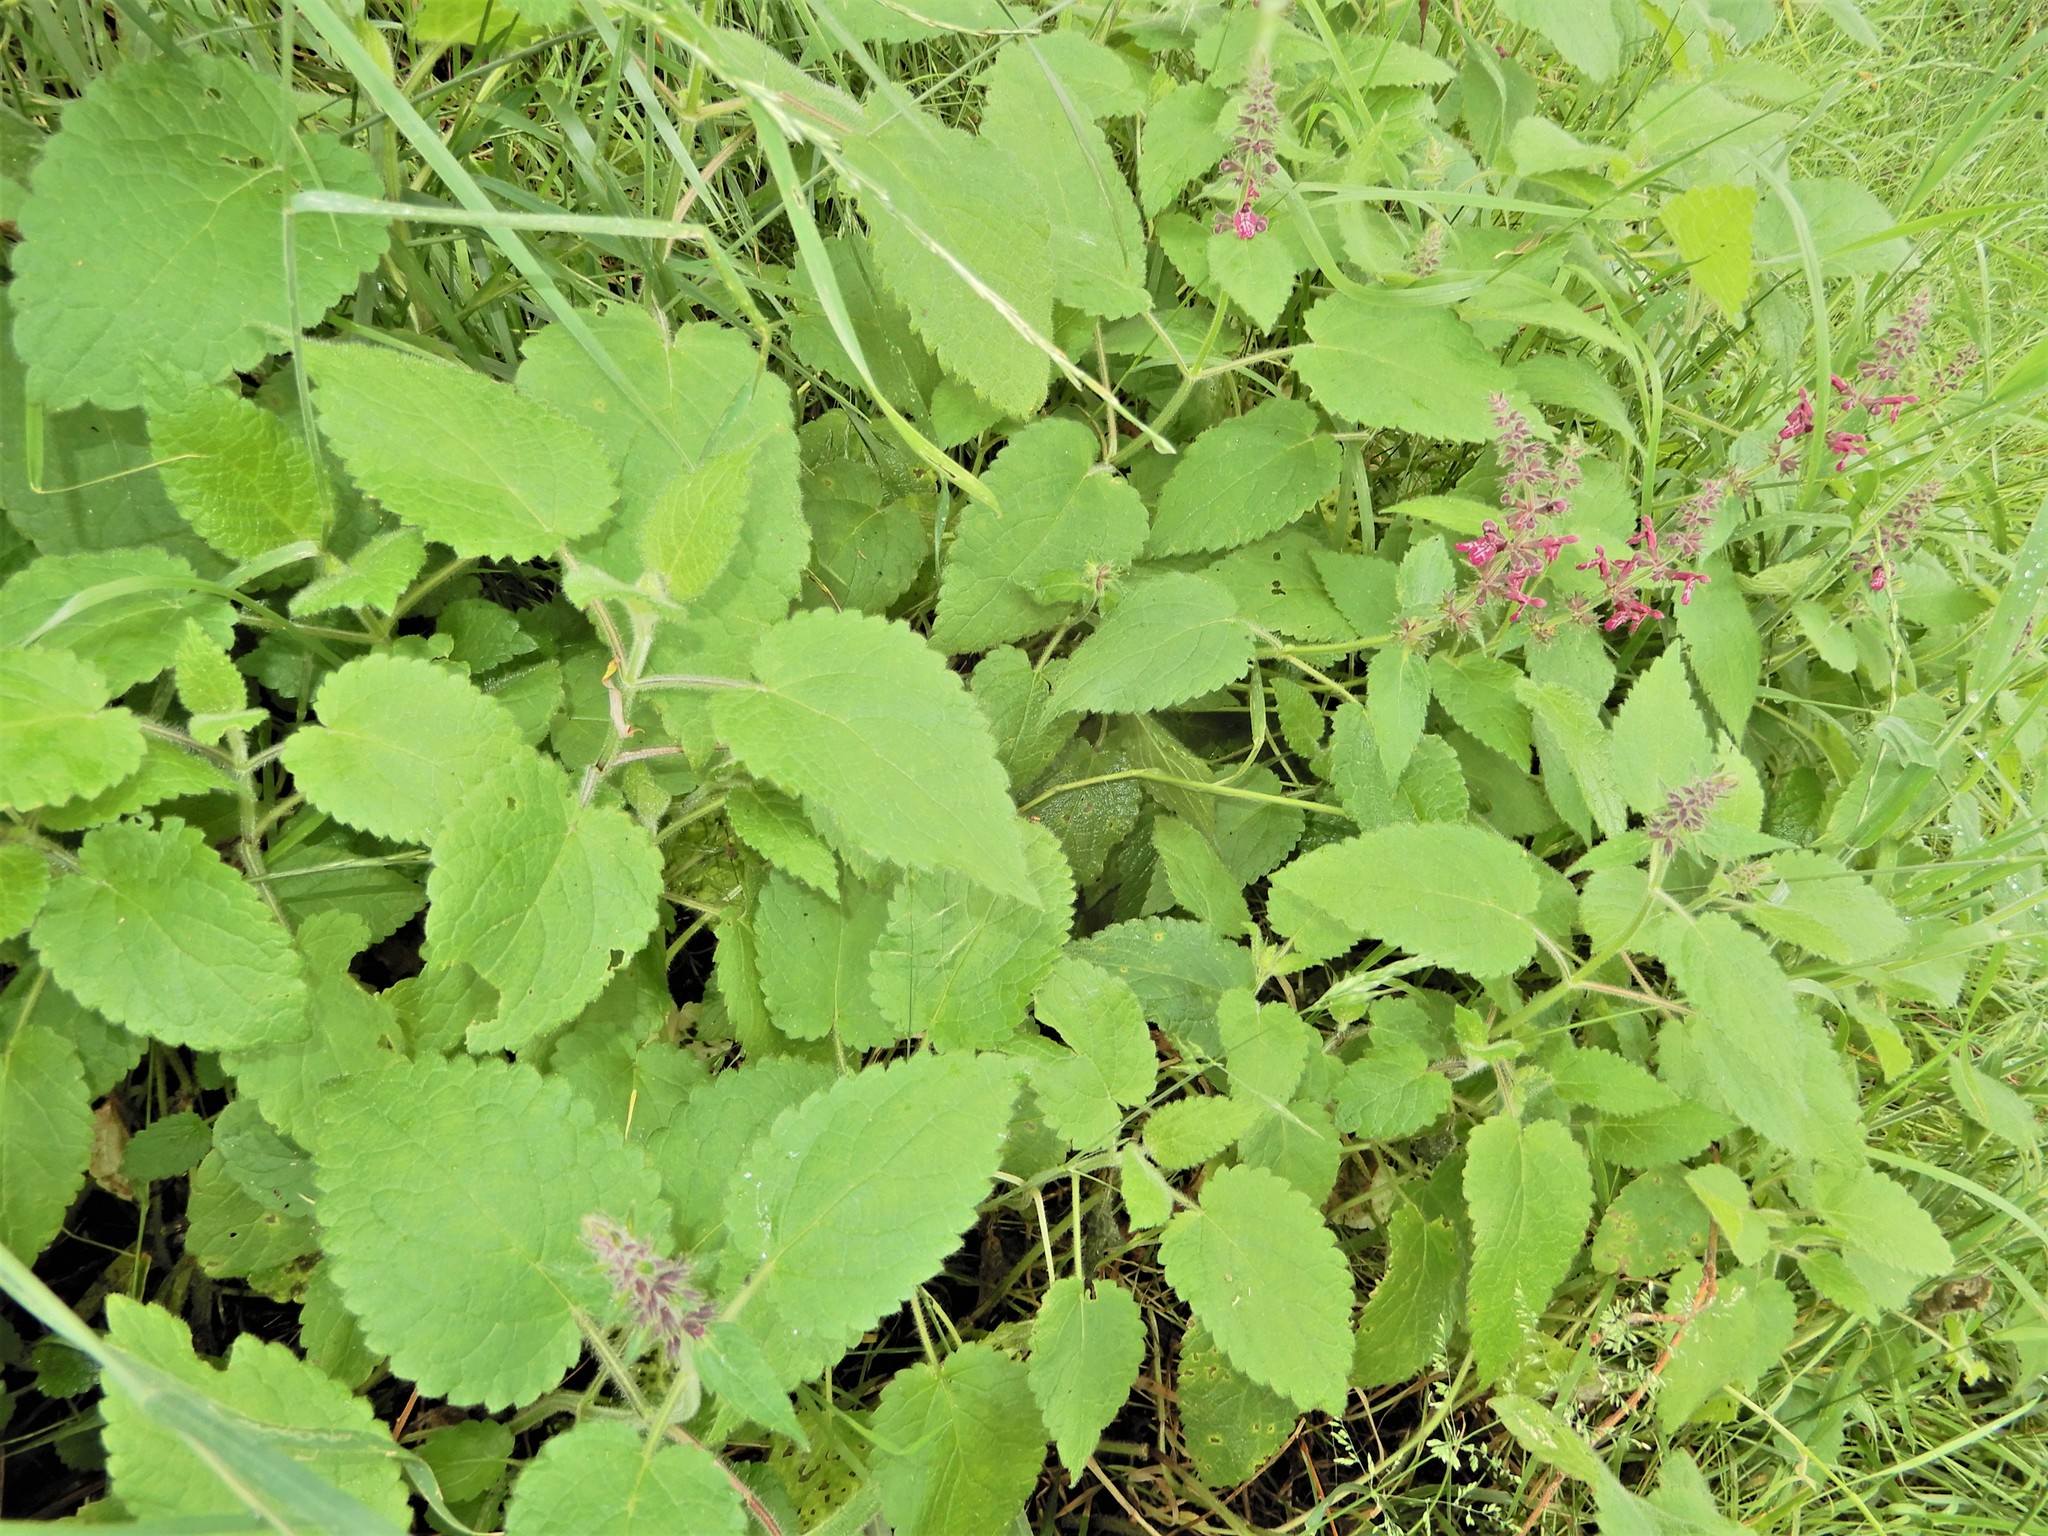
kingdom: Plantae
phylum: Tracheophyta
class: Magnoliopsida
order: Lamiales
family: Lamiaceae
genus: Stachys
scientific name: Stachys sylvatica
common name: Hedge woundwort
